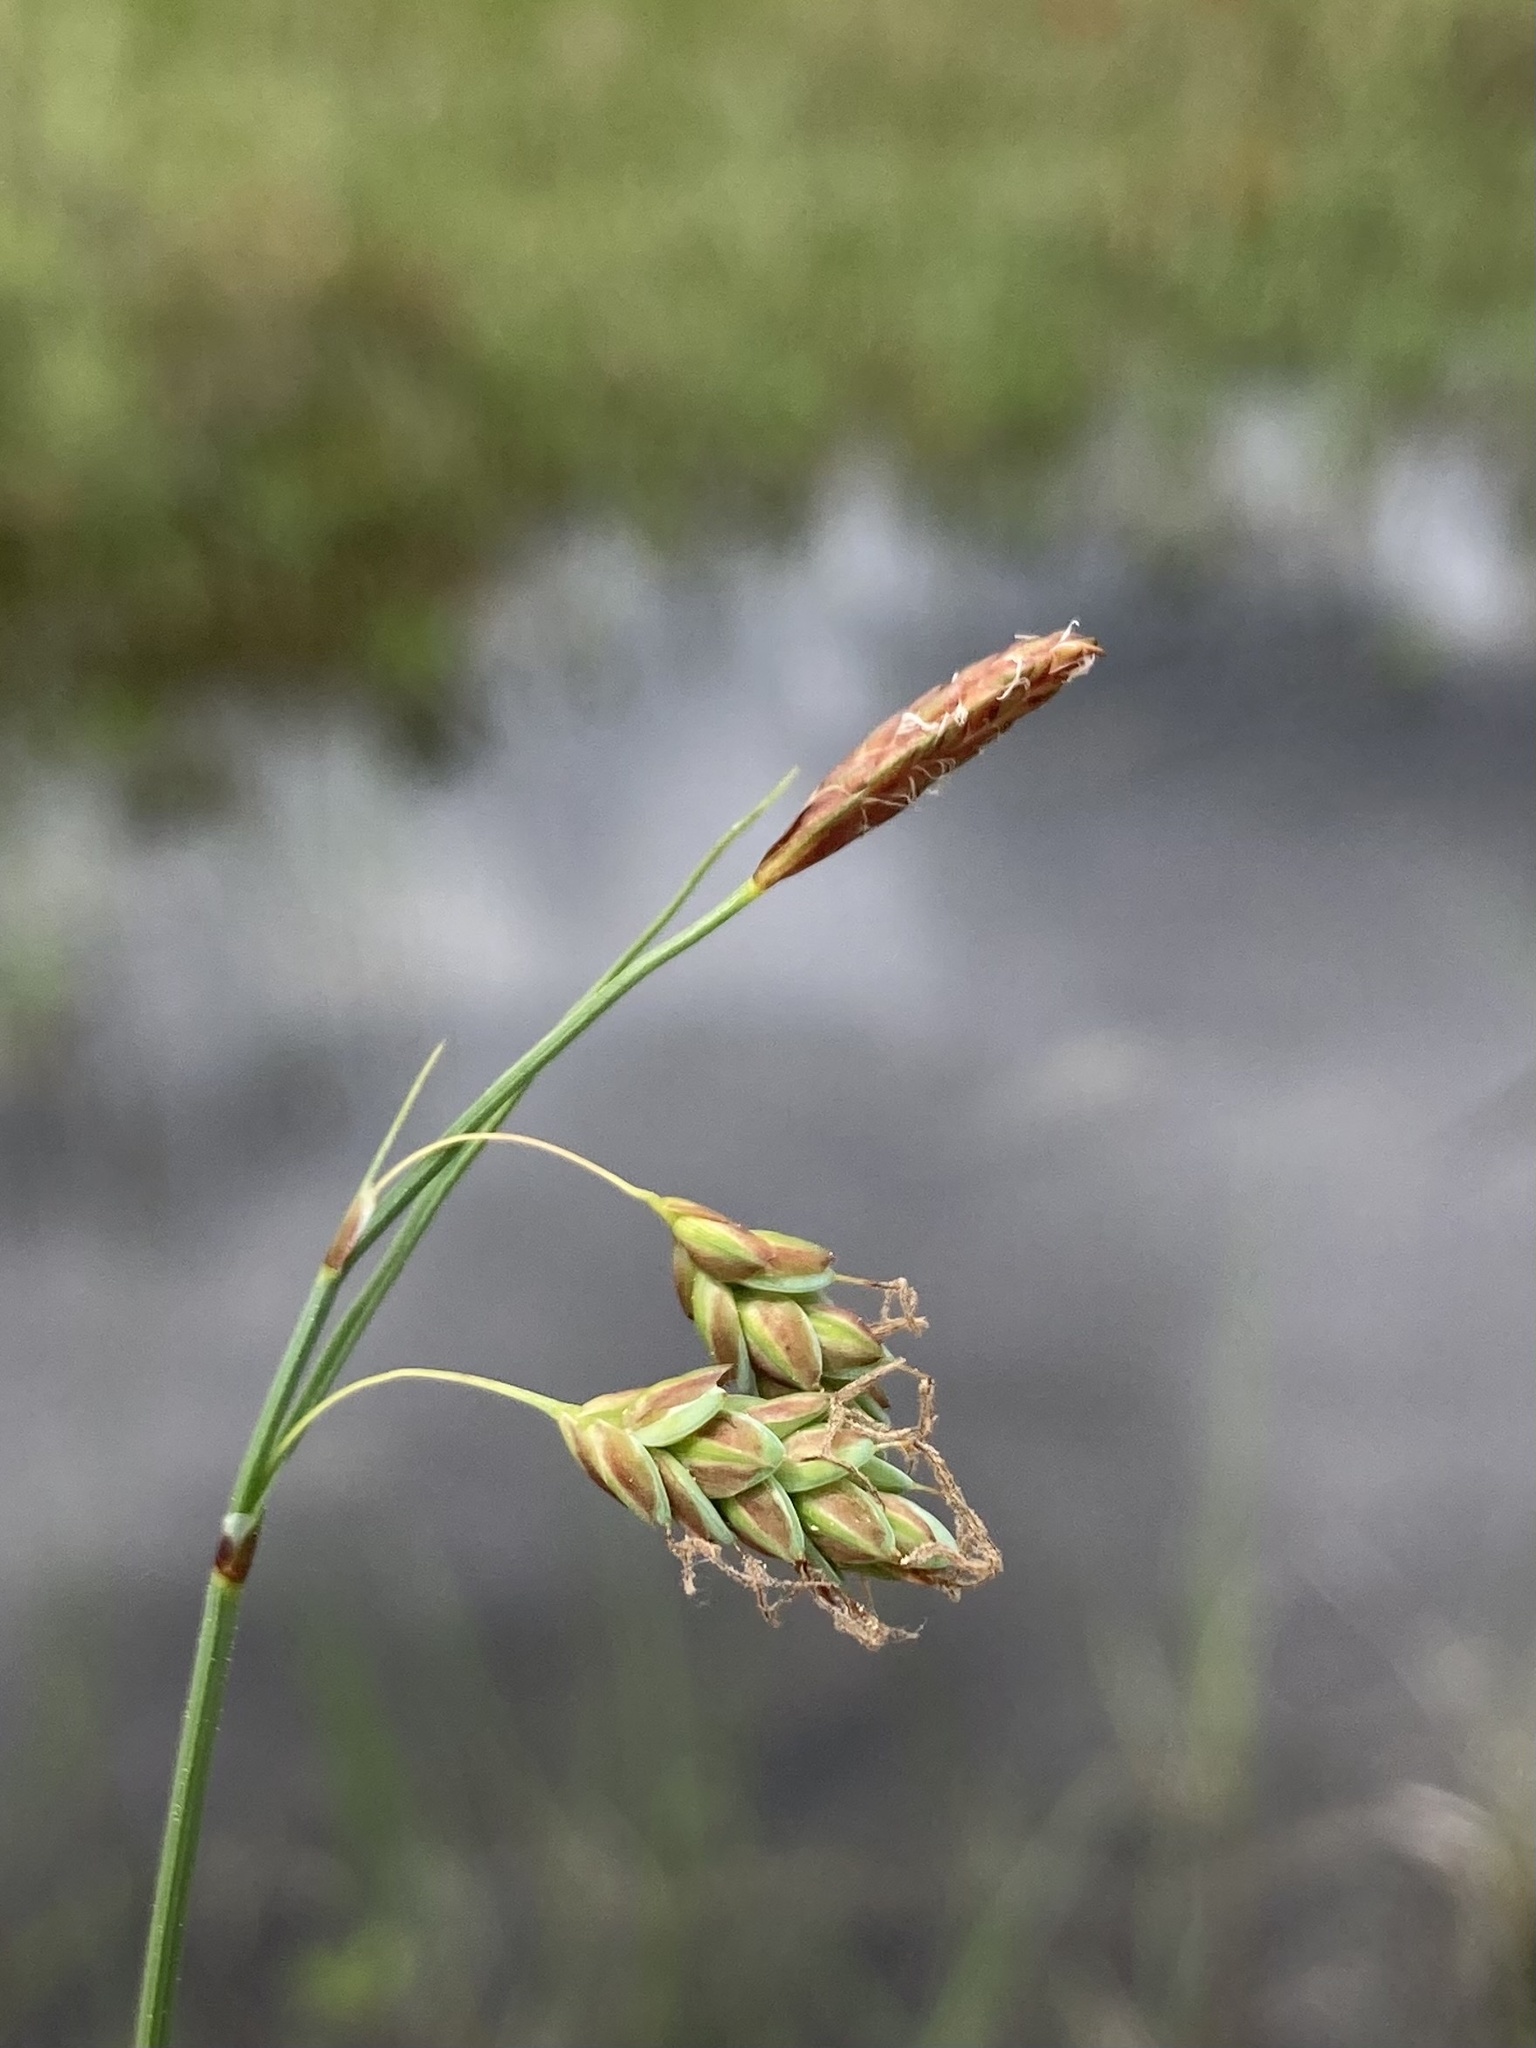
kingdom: Plantae
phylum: Tracheophyta
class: Liliopsida
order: Poales
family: Cyperaceae
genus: Carex
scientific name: Carex limosa
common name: Bog sedge
